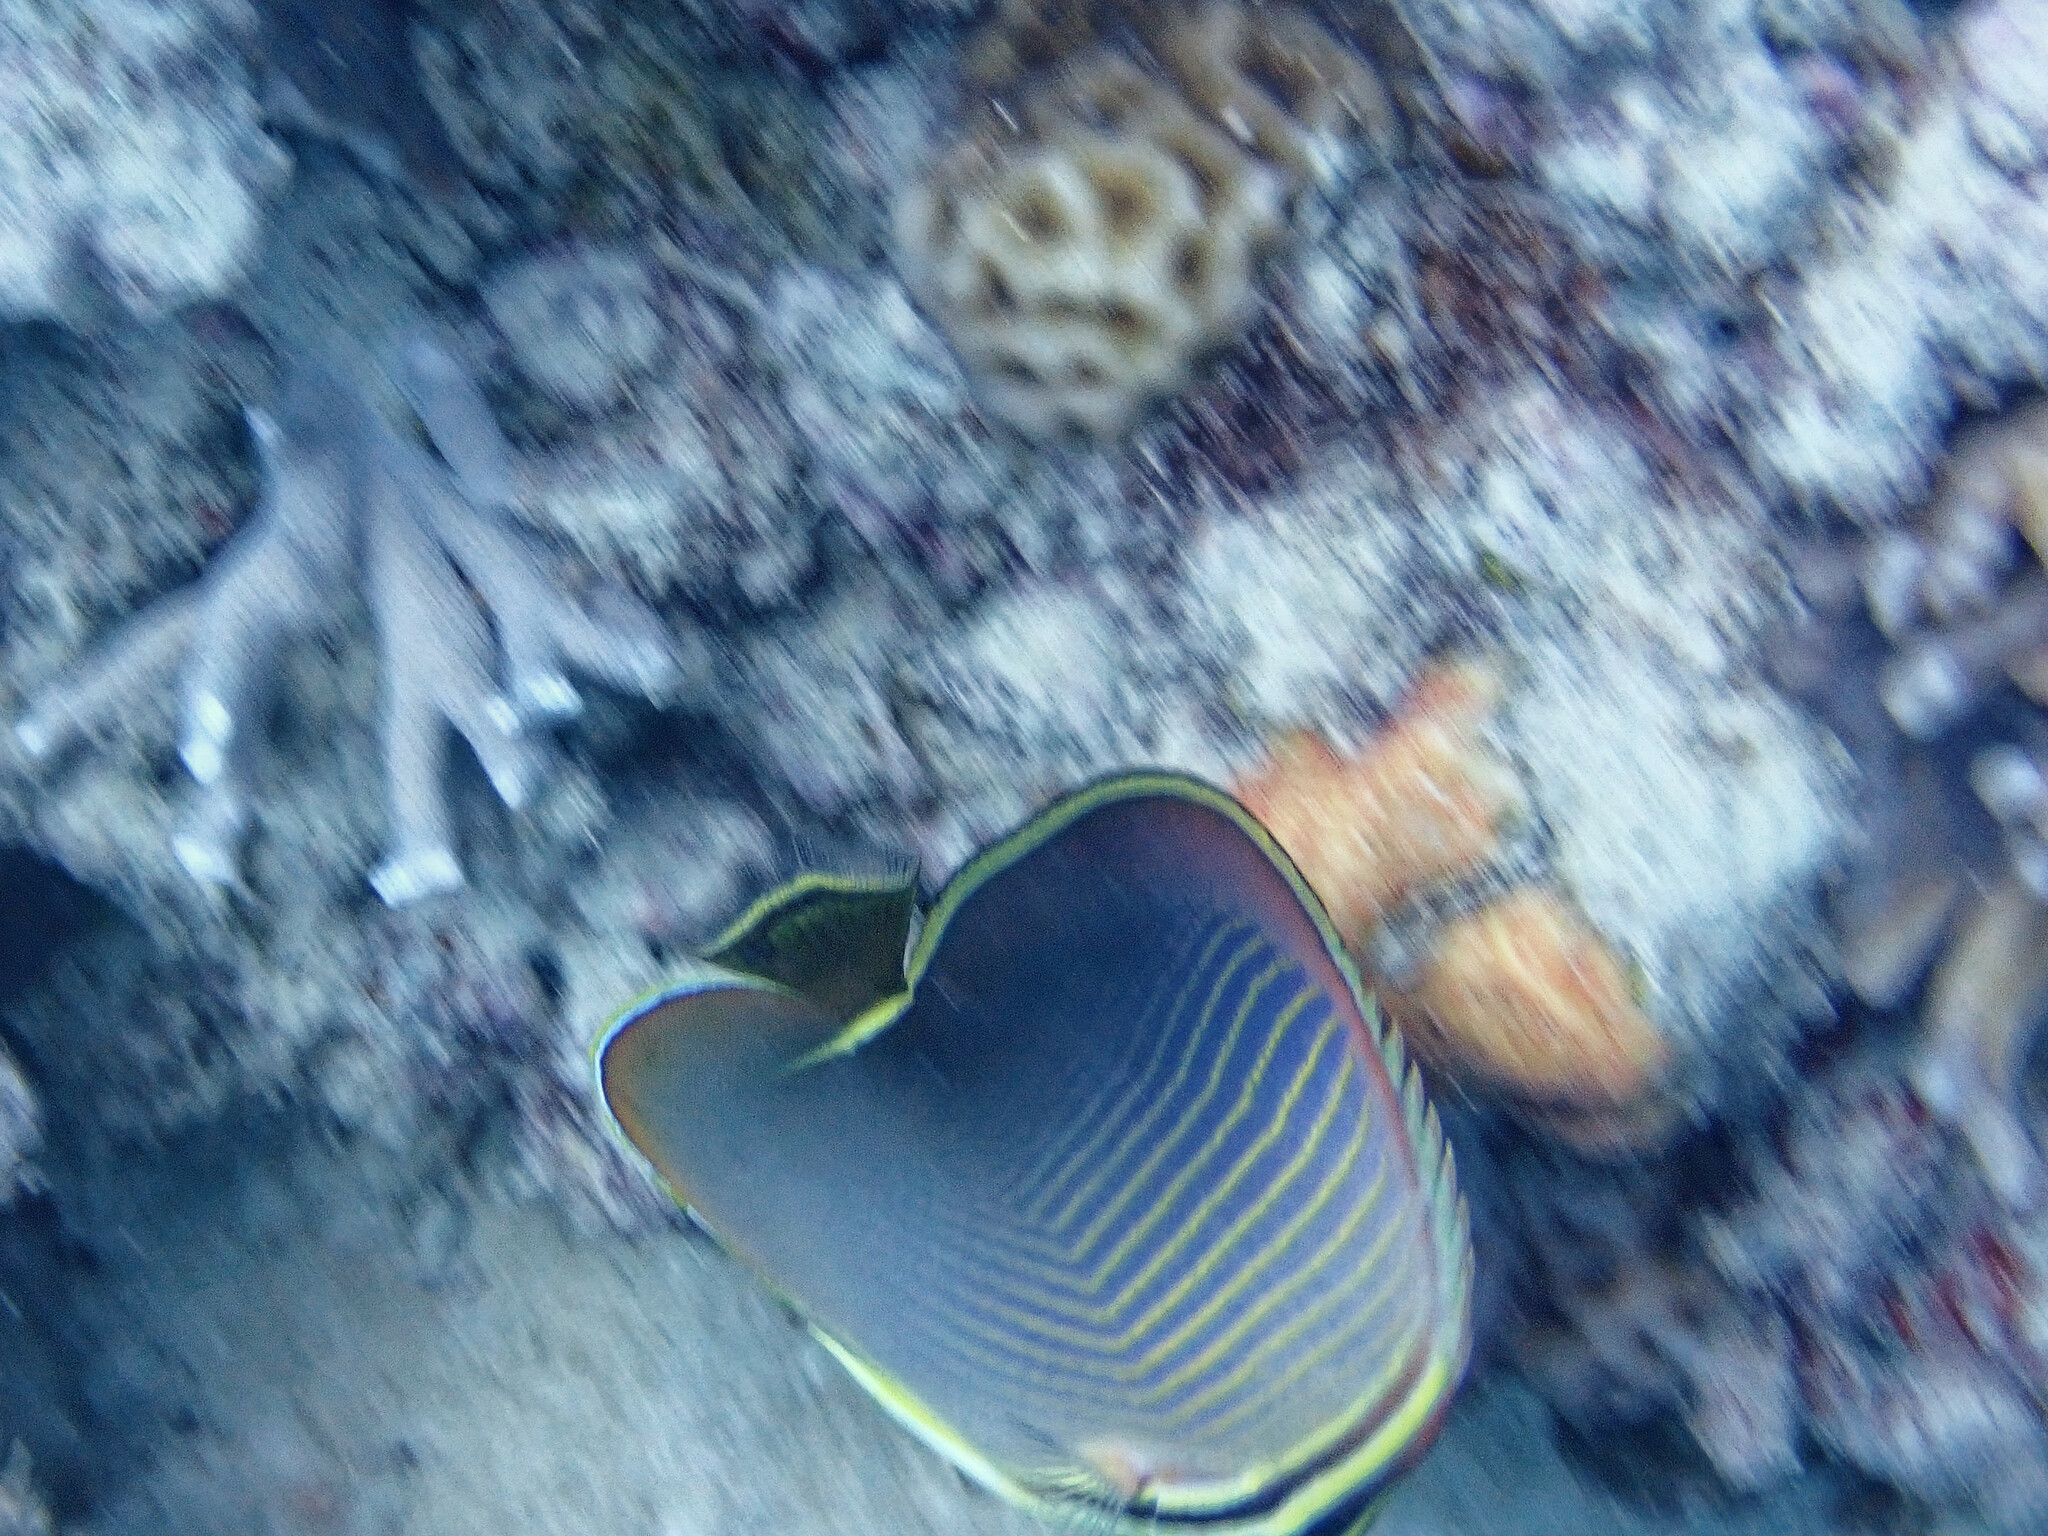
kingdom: Animalia
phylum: Chordata
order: Perciformes
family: Chaetodontidae
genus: Chaetodon
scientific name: Chaetodon baronessa
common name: Triangular butterflyfish
